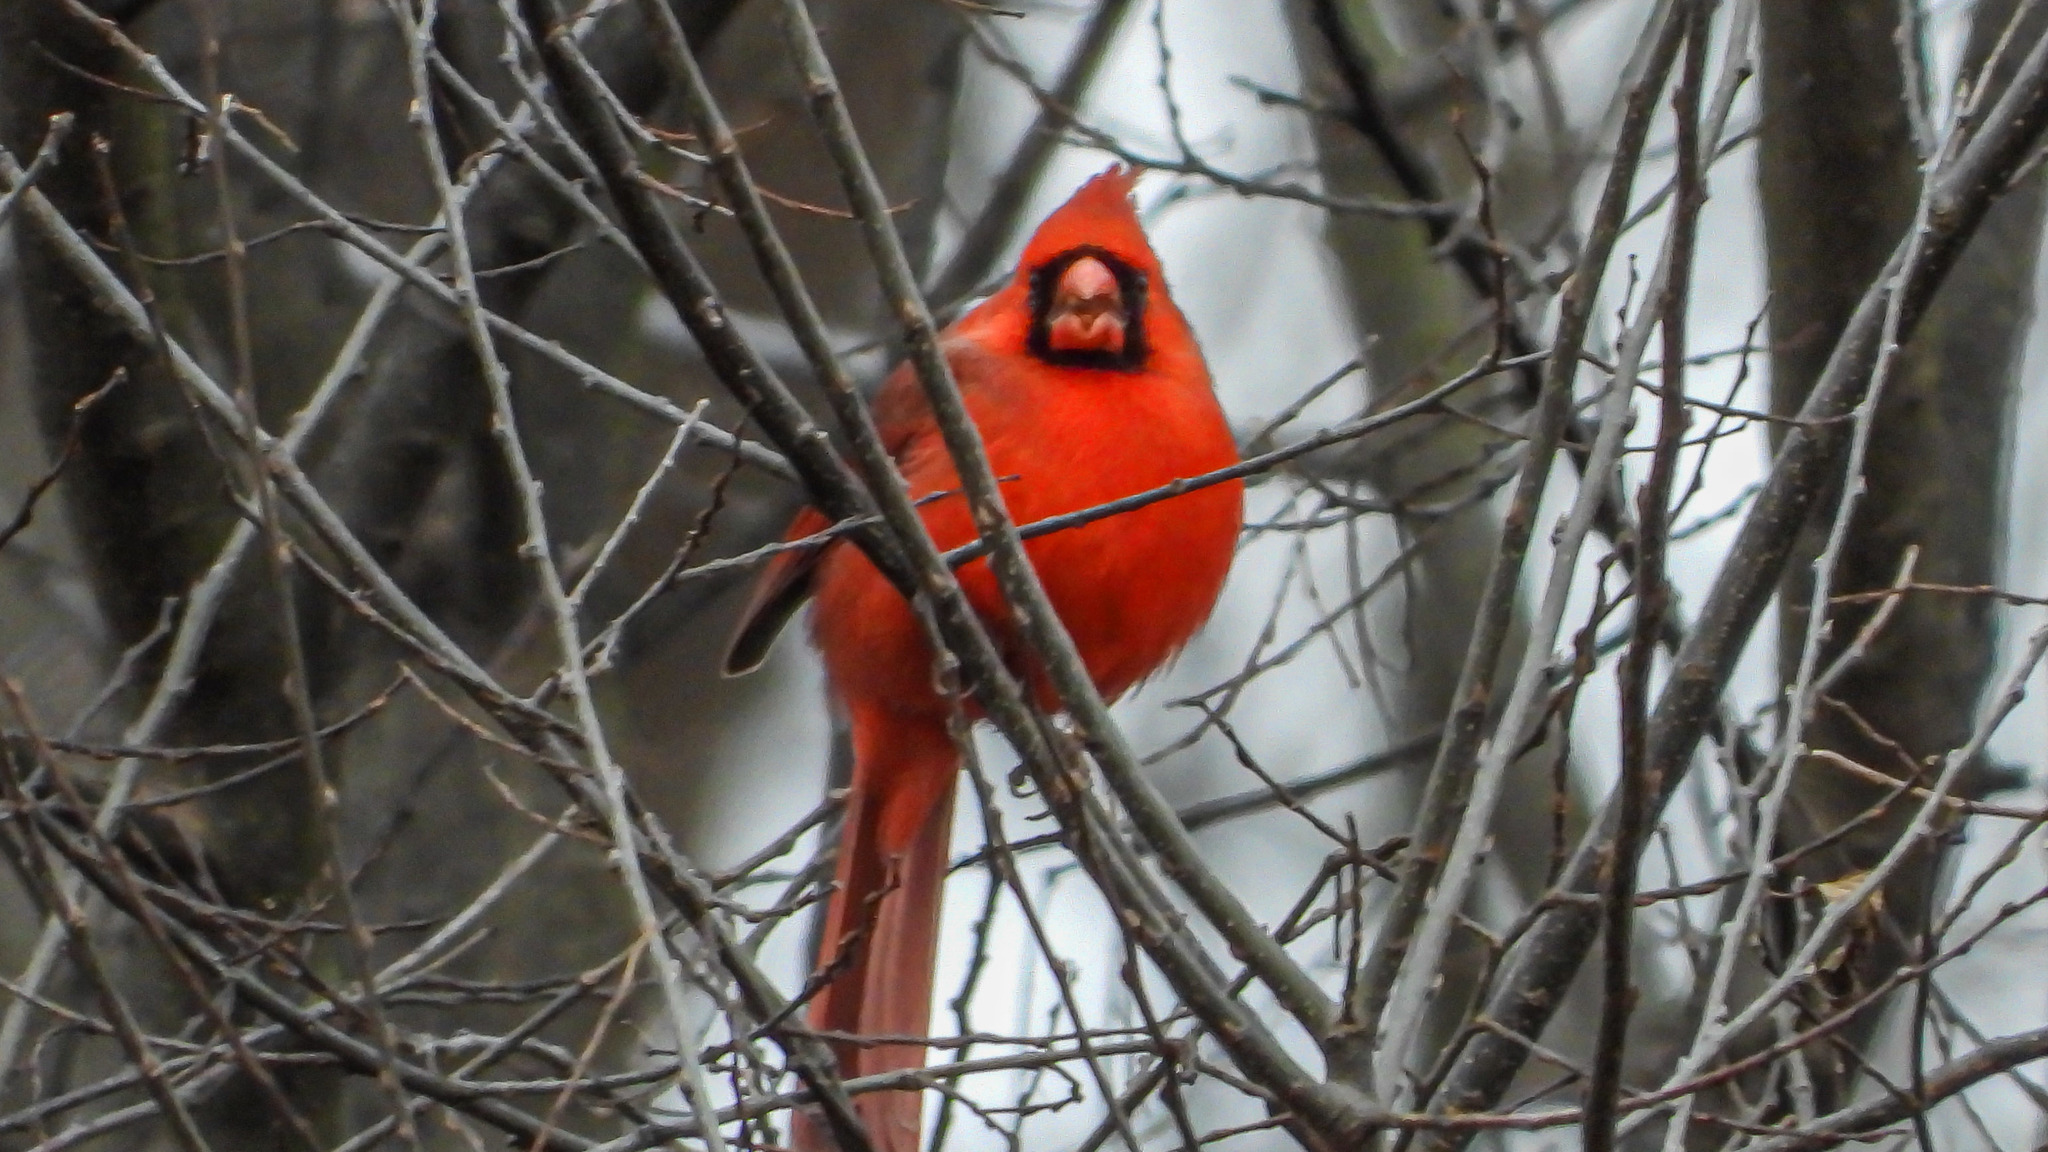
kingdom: Animalia
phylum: Chordata
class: Aves
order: Passeriformes
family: Cardinalidae
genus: Cardinalis
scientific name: Cardinalis cardinalis
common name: Northern cardinal
